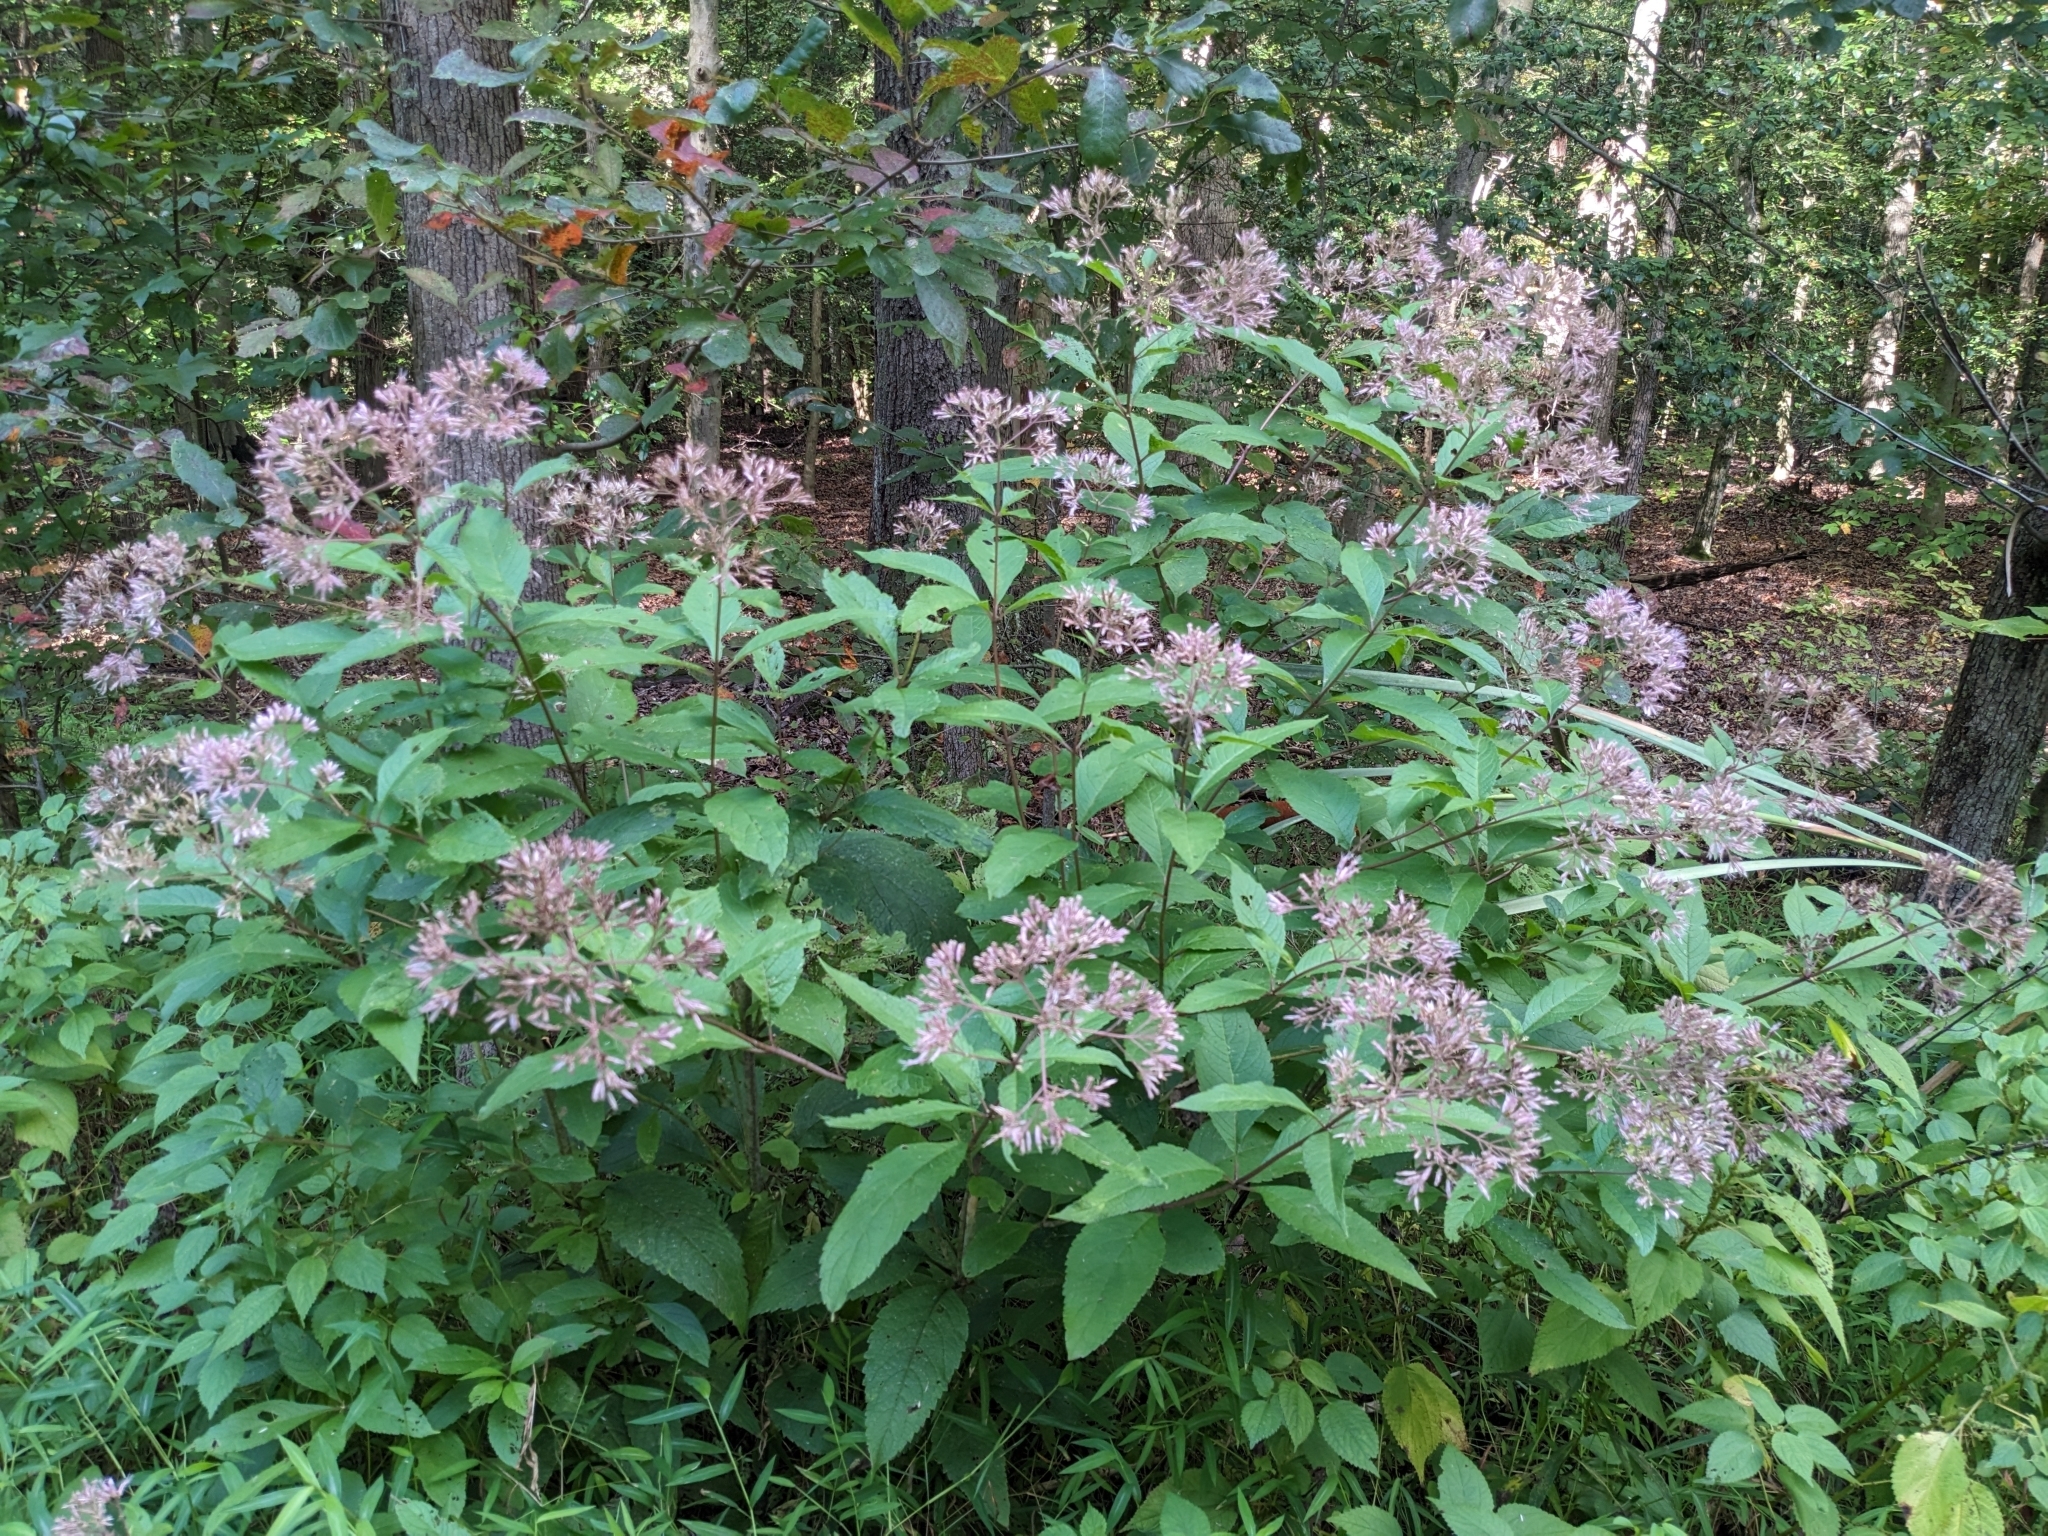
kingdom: Plantae
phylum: Tracheophyta
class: Magnoliopsida
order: Asterales
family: Asteraceae
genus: Eutrochium
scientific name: Eutrochium fistulosum
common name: Trumpetweed
